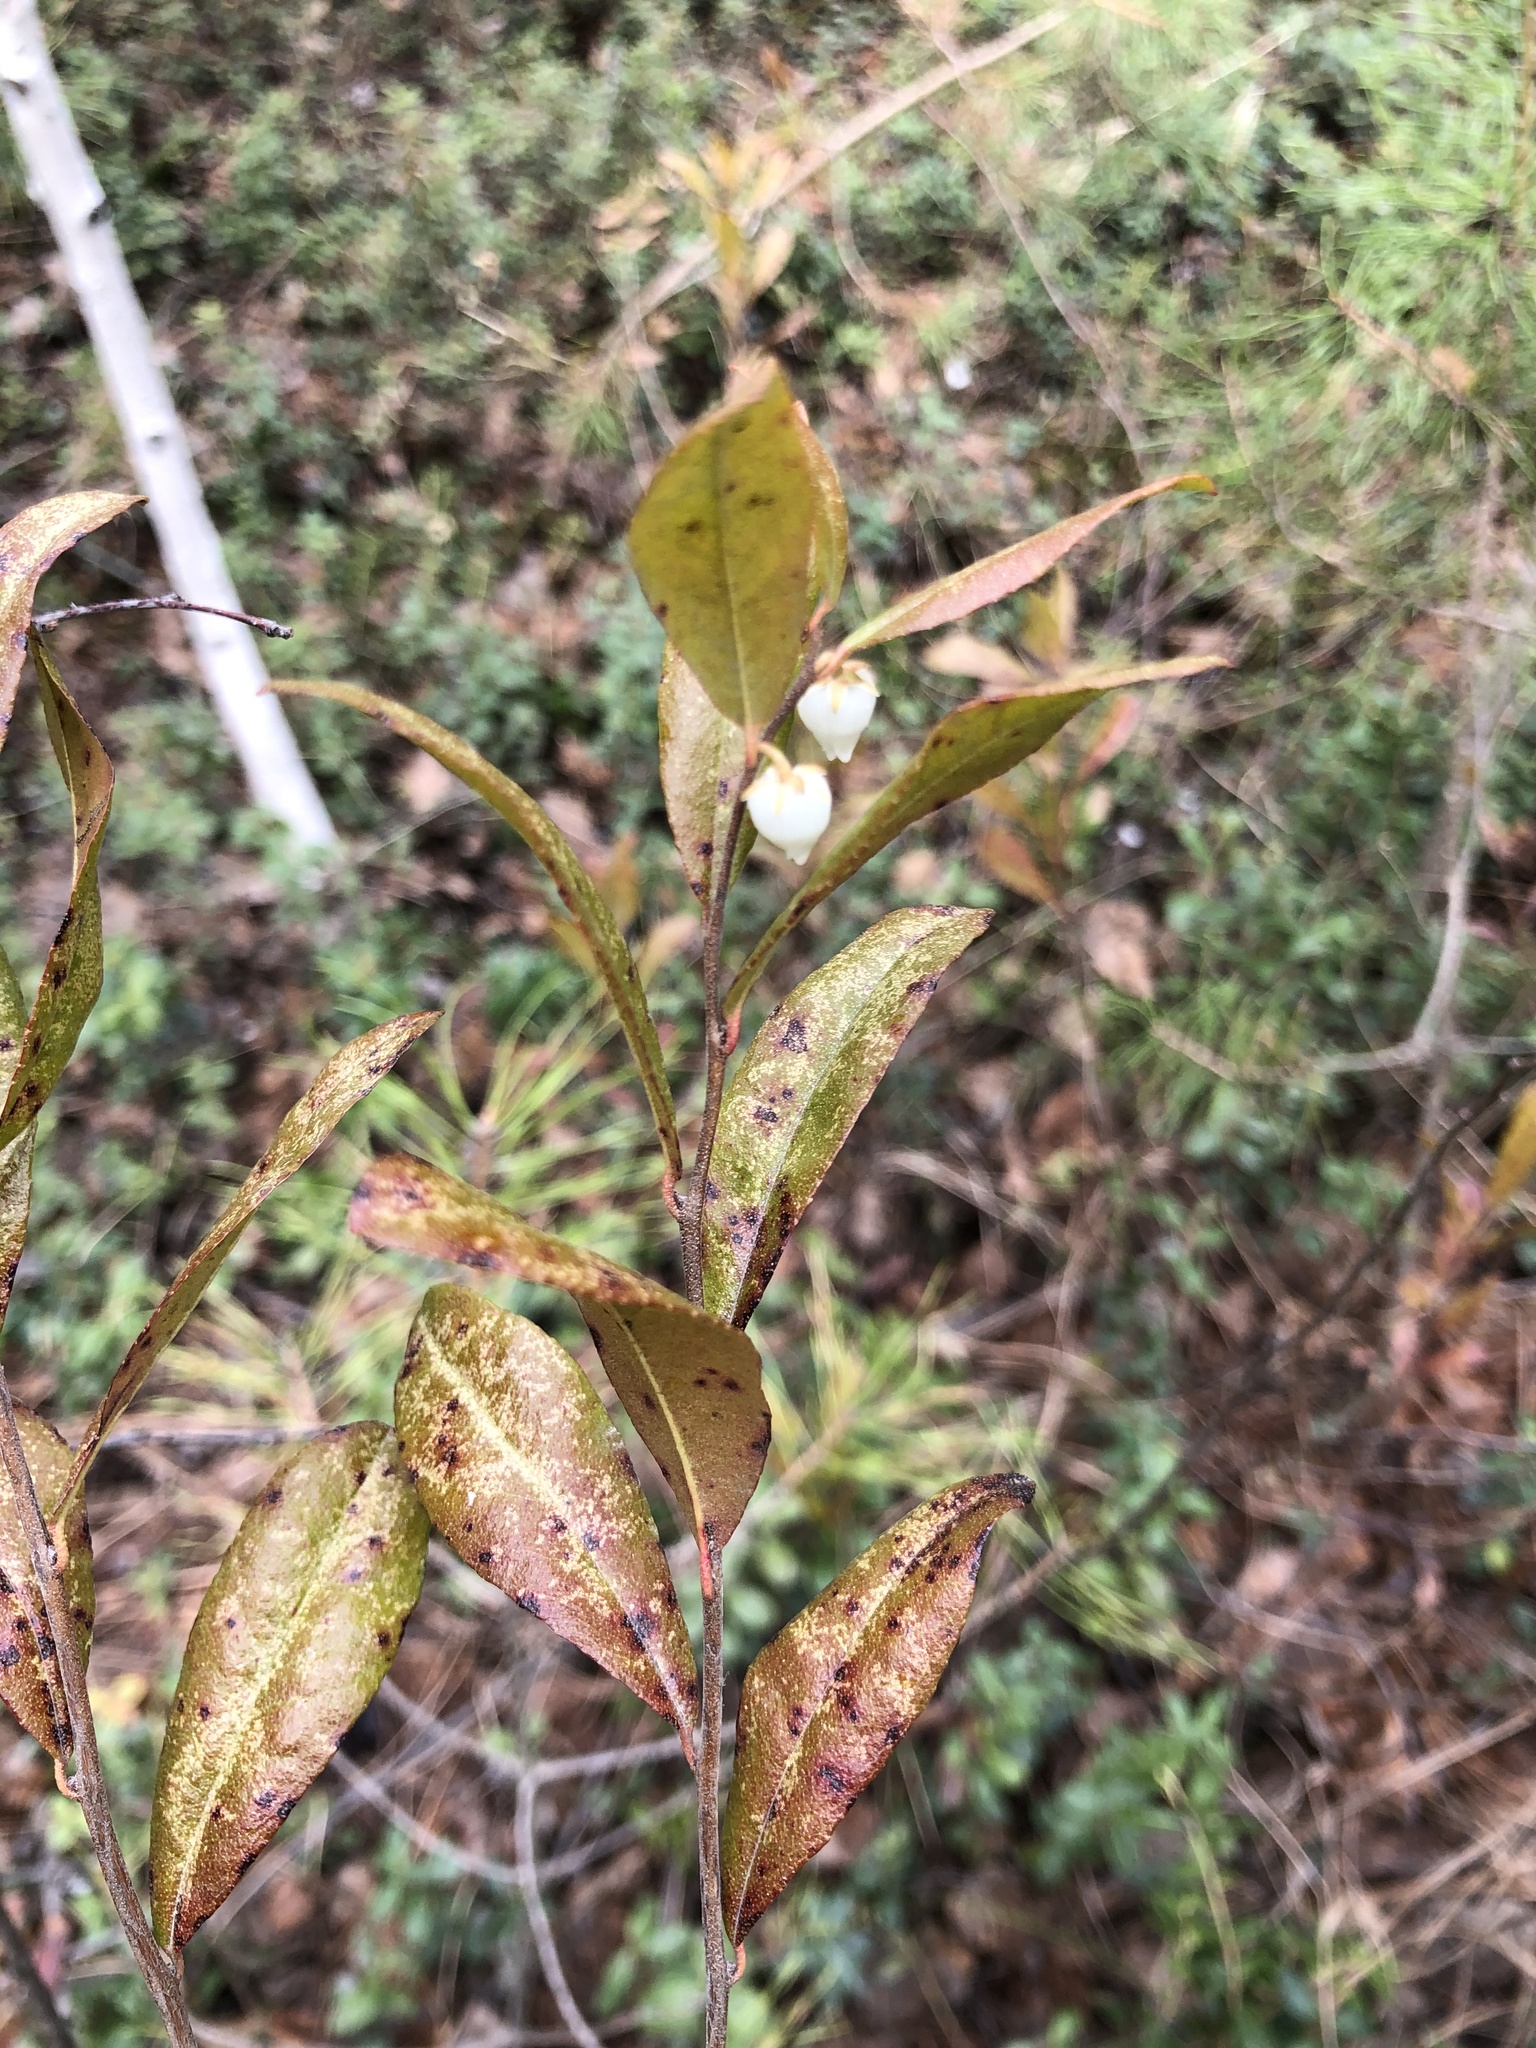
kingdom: Plantae
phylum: Tracheophyta
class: Magnoliopsida
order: Ericales
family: Ericaceae
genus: Chamaedaphne
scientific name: Chamaedaphne calyculata
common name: Leatherleaf
